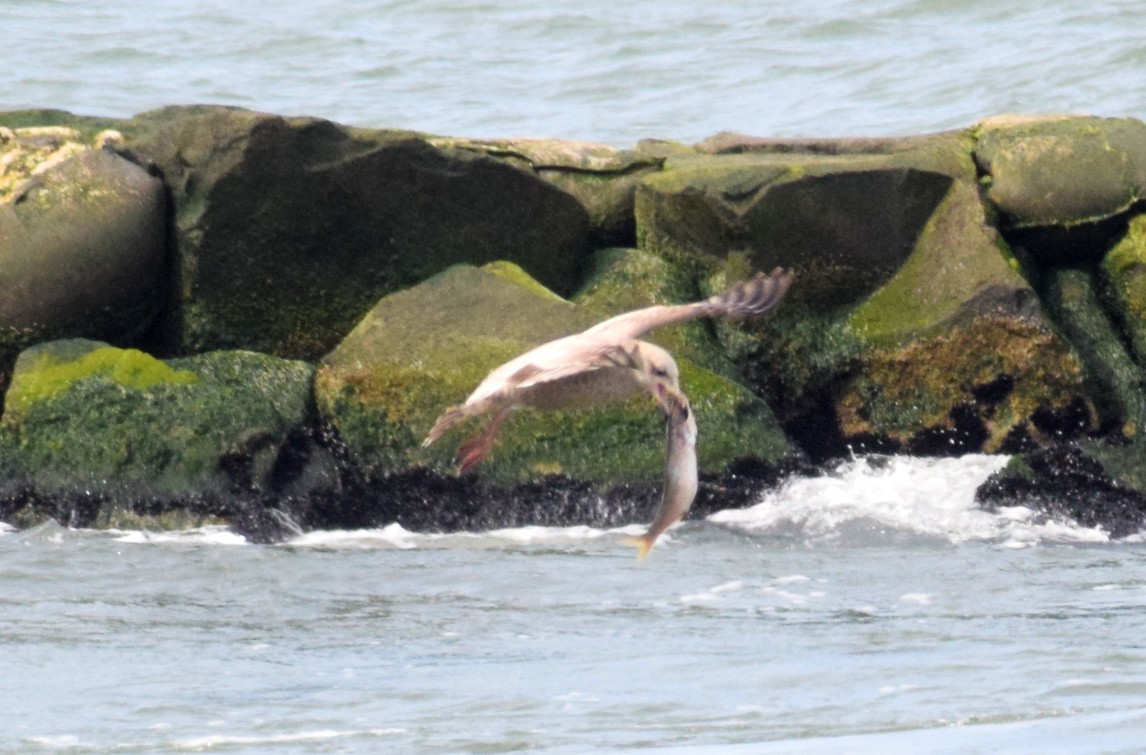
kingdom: Animalia
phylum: Chordata
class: Aves
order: Charadriiformes
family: Laridae
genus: Larus
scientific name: Larus argentatus
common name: Herring gull
